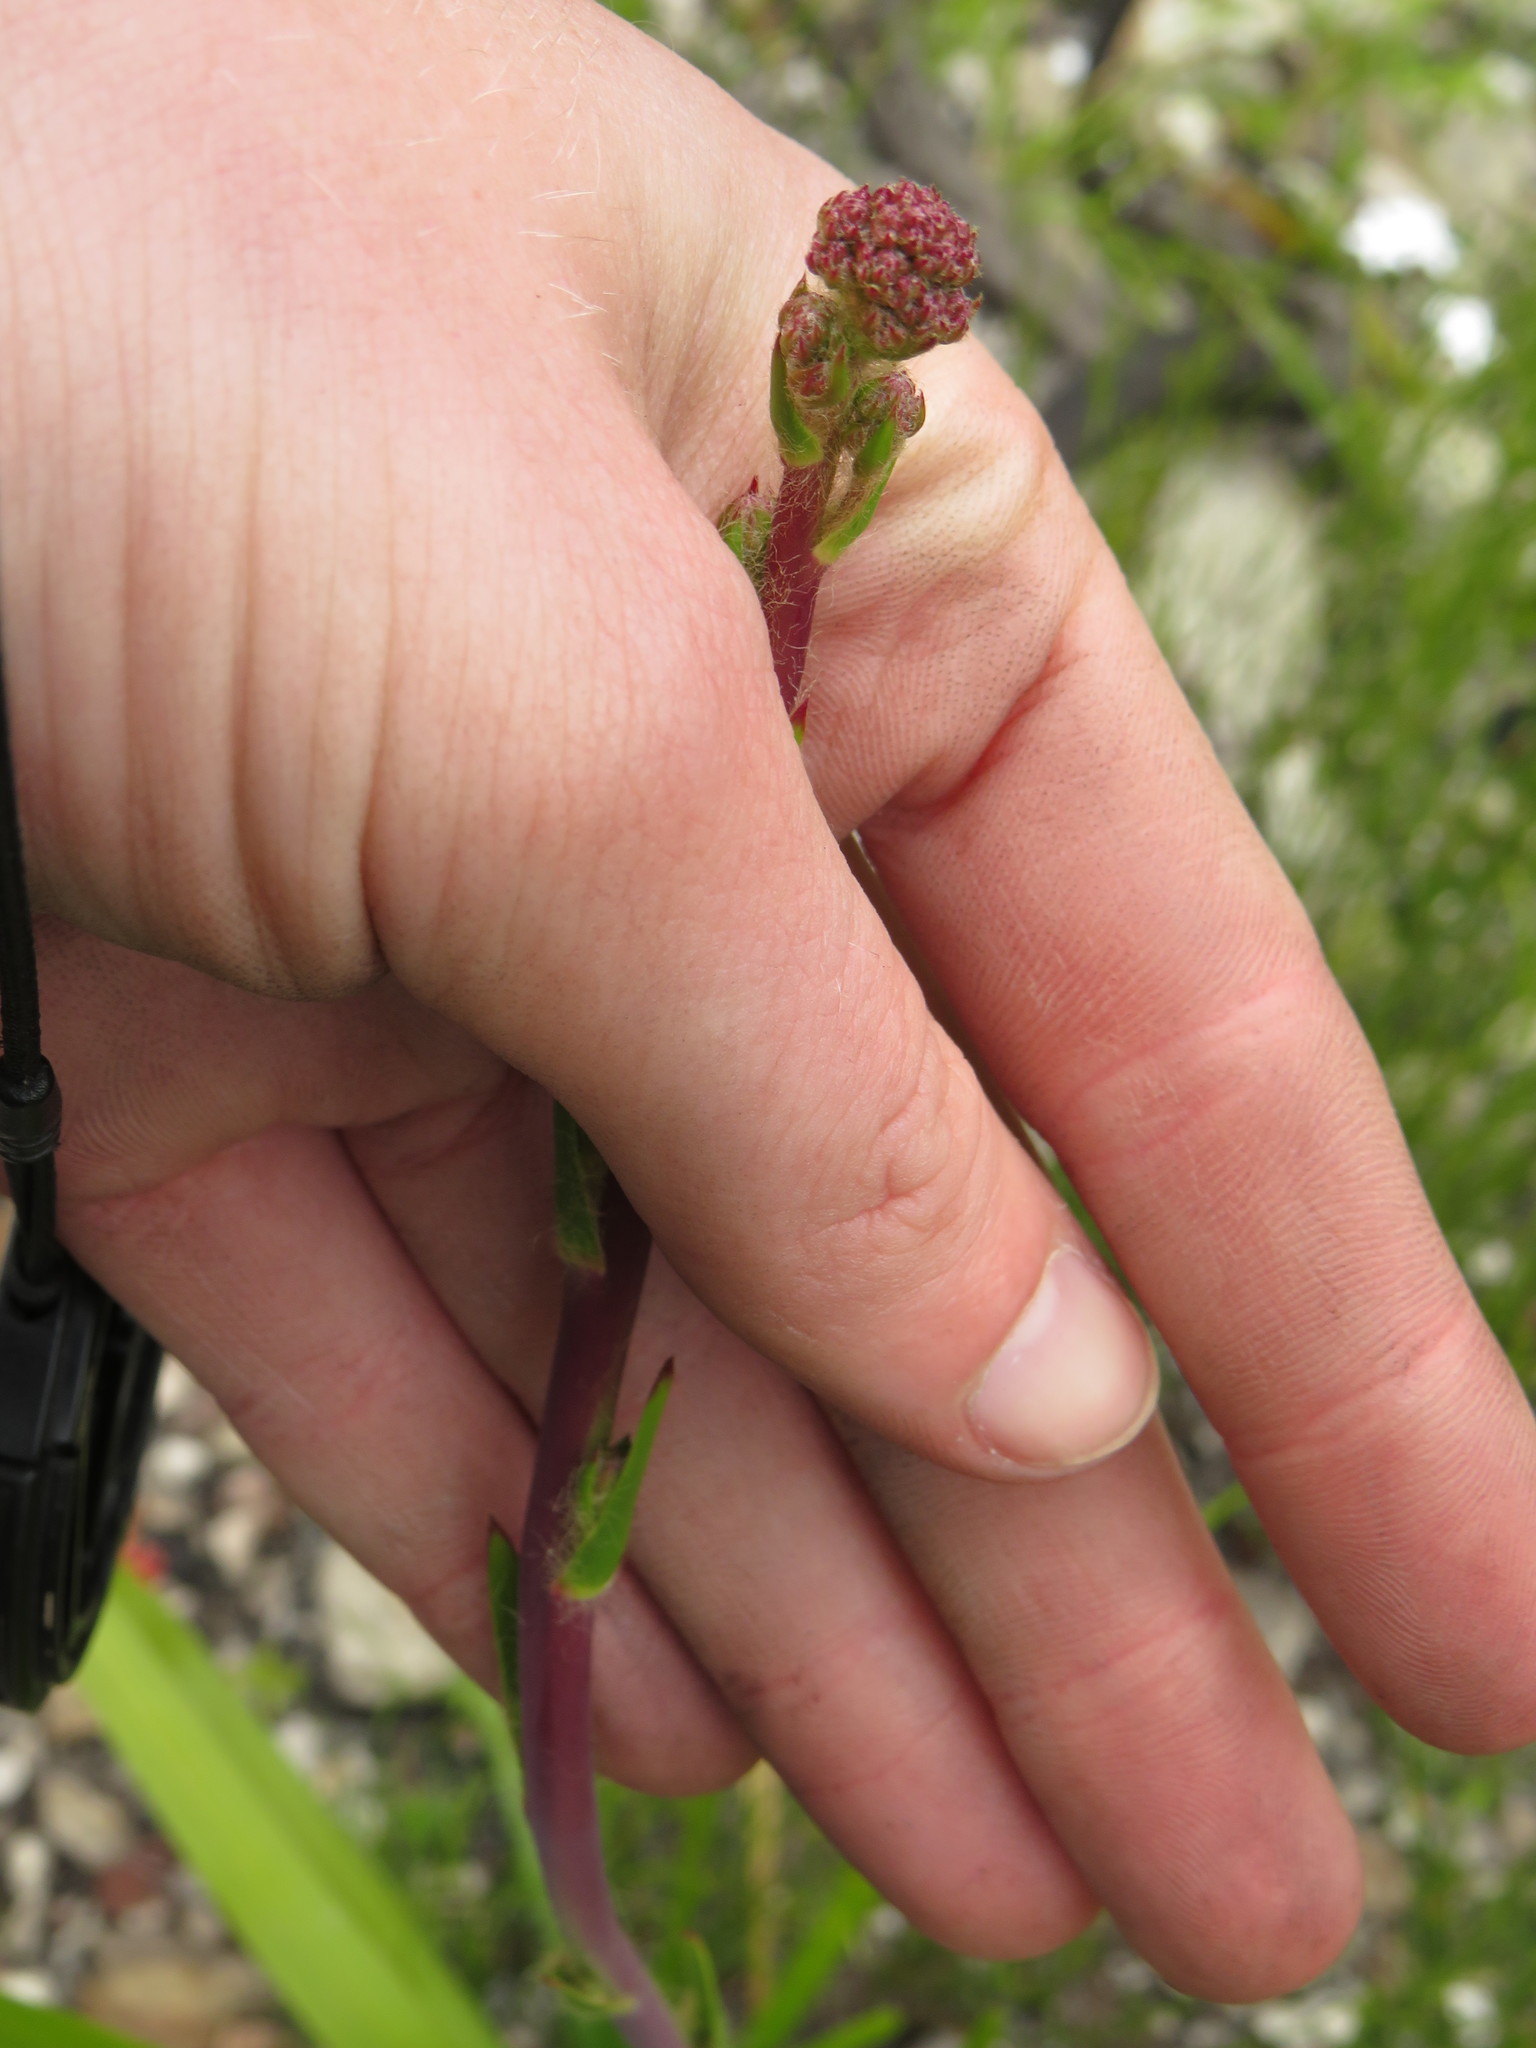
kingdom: Plantae
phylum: Tracheophyta
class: Magnoliopsida
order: Asterales
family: Asteraceae
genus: Corymbium
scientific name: Corymbium africanum
